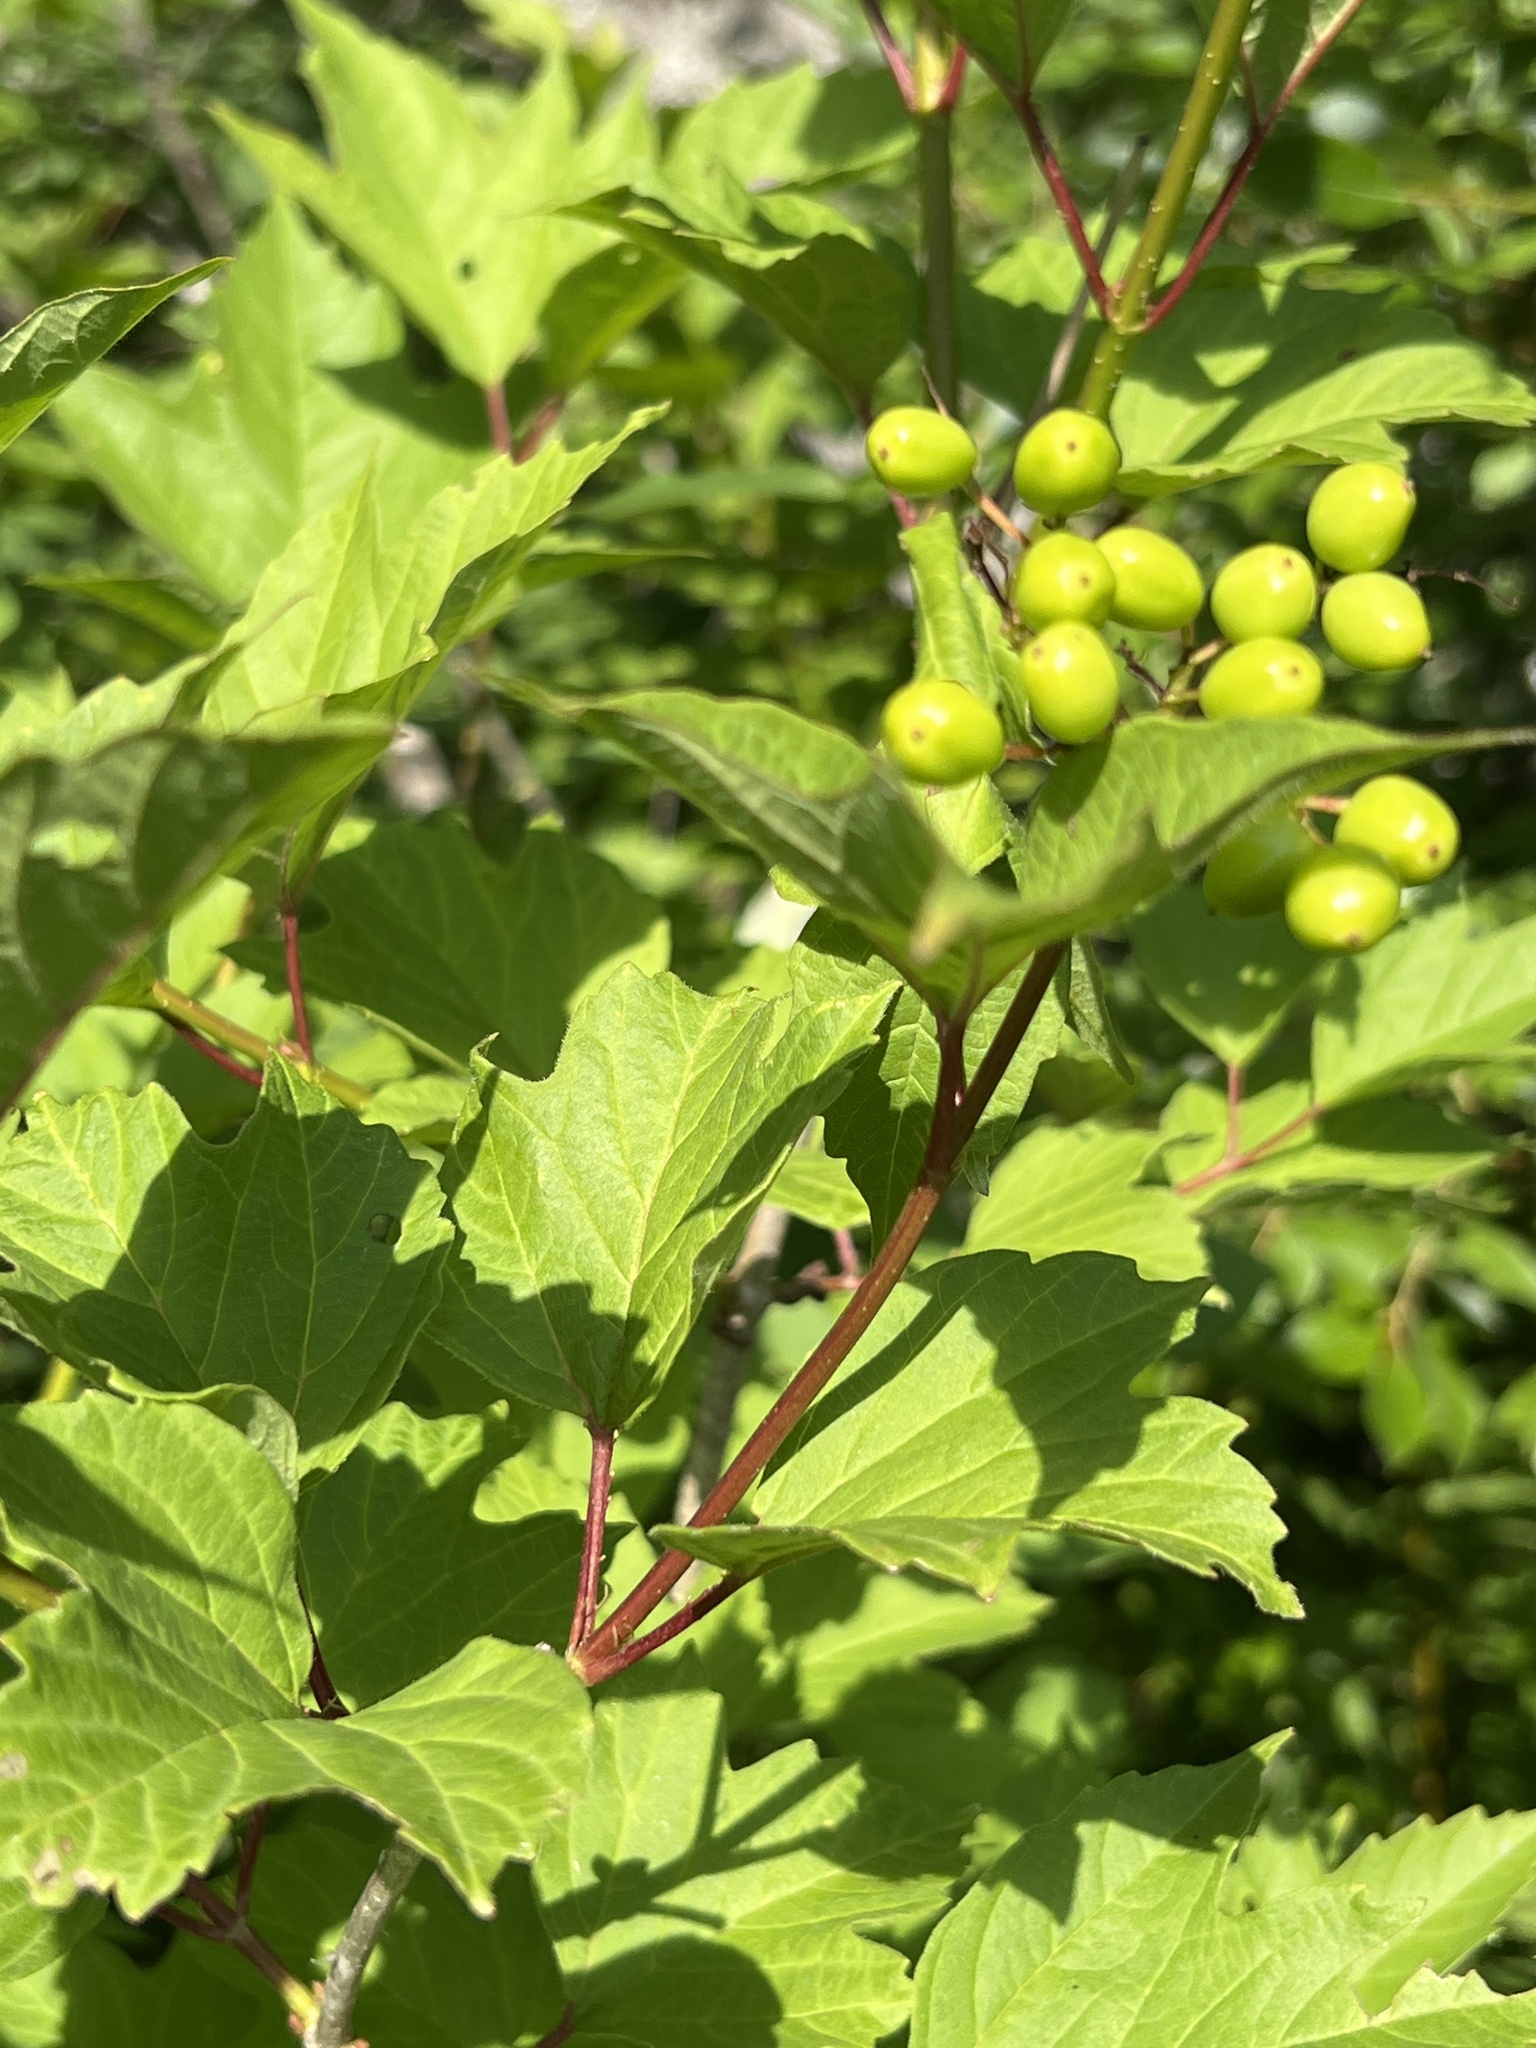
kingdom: Plantae
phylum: Tracheophyta
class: Magnoliopsida
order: Dipsacales
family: Viburnaceae
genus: Viburnum
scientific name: Viburnum opulus
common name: Guelder-rose
